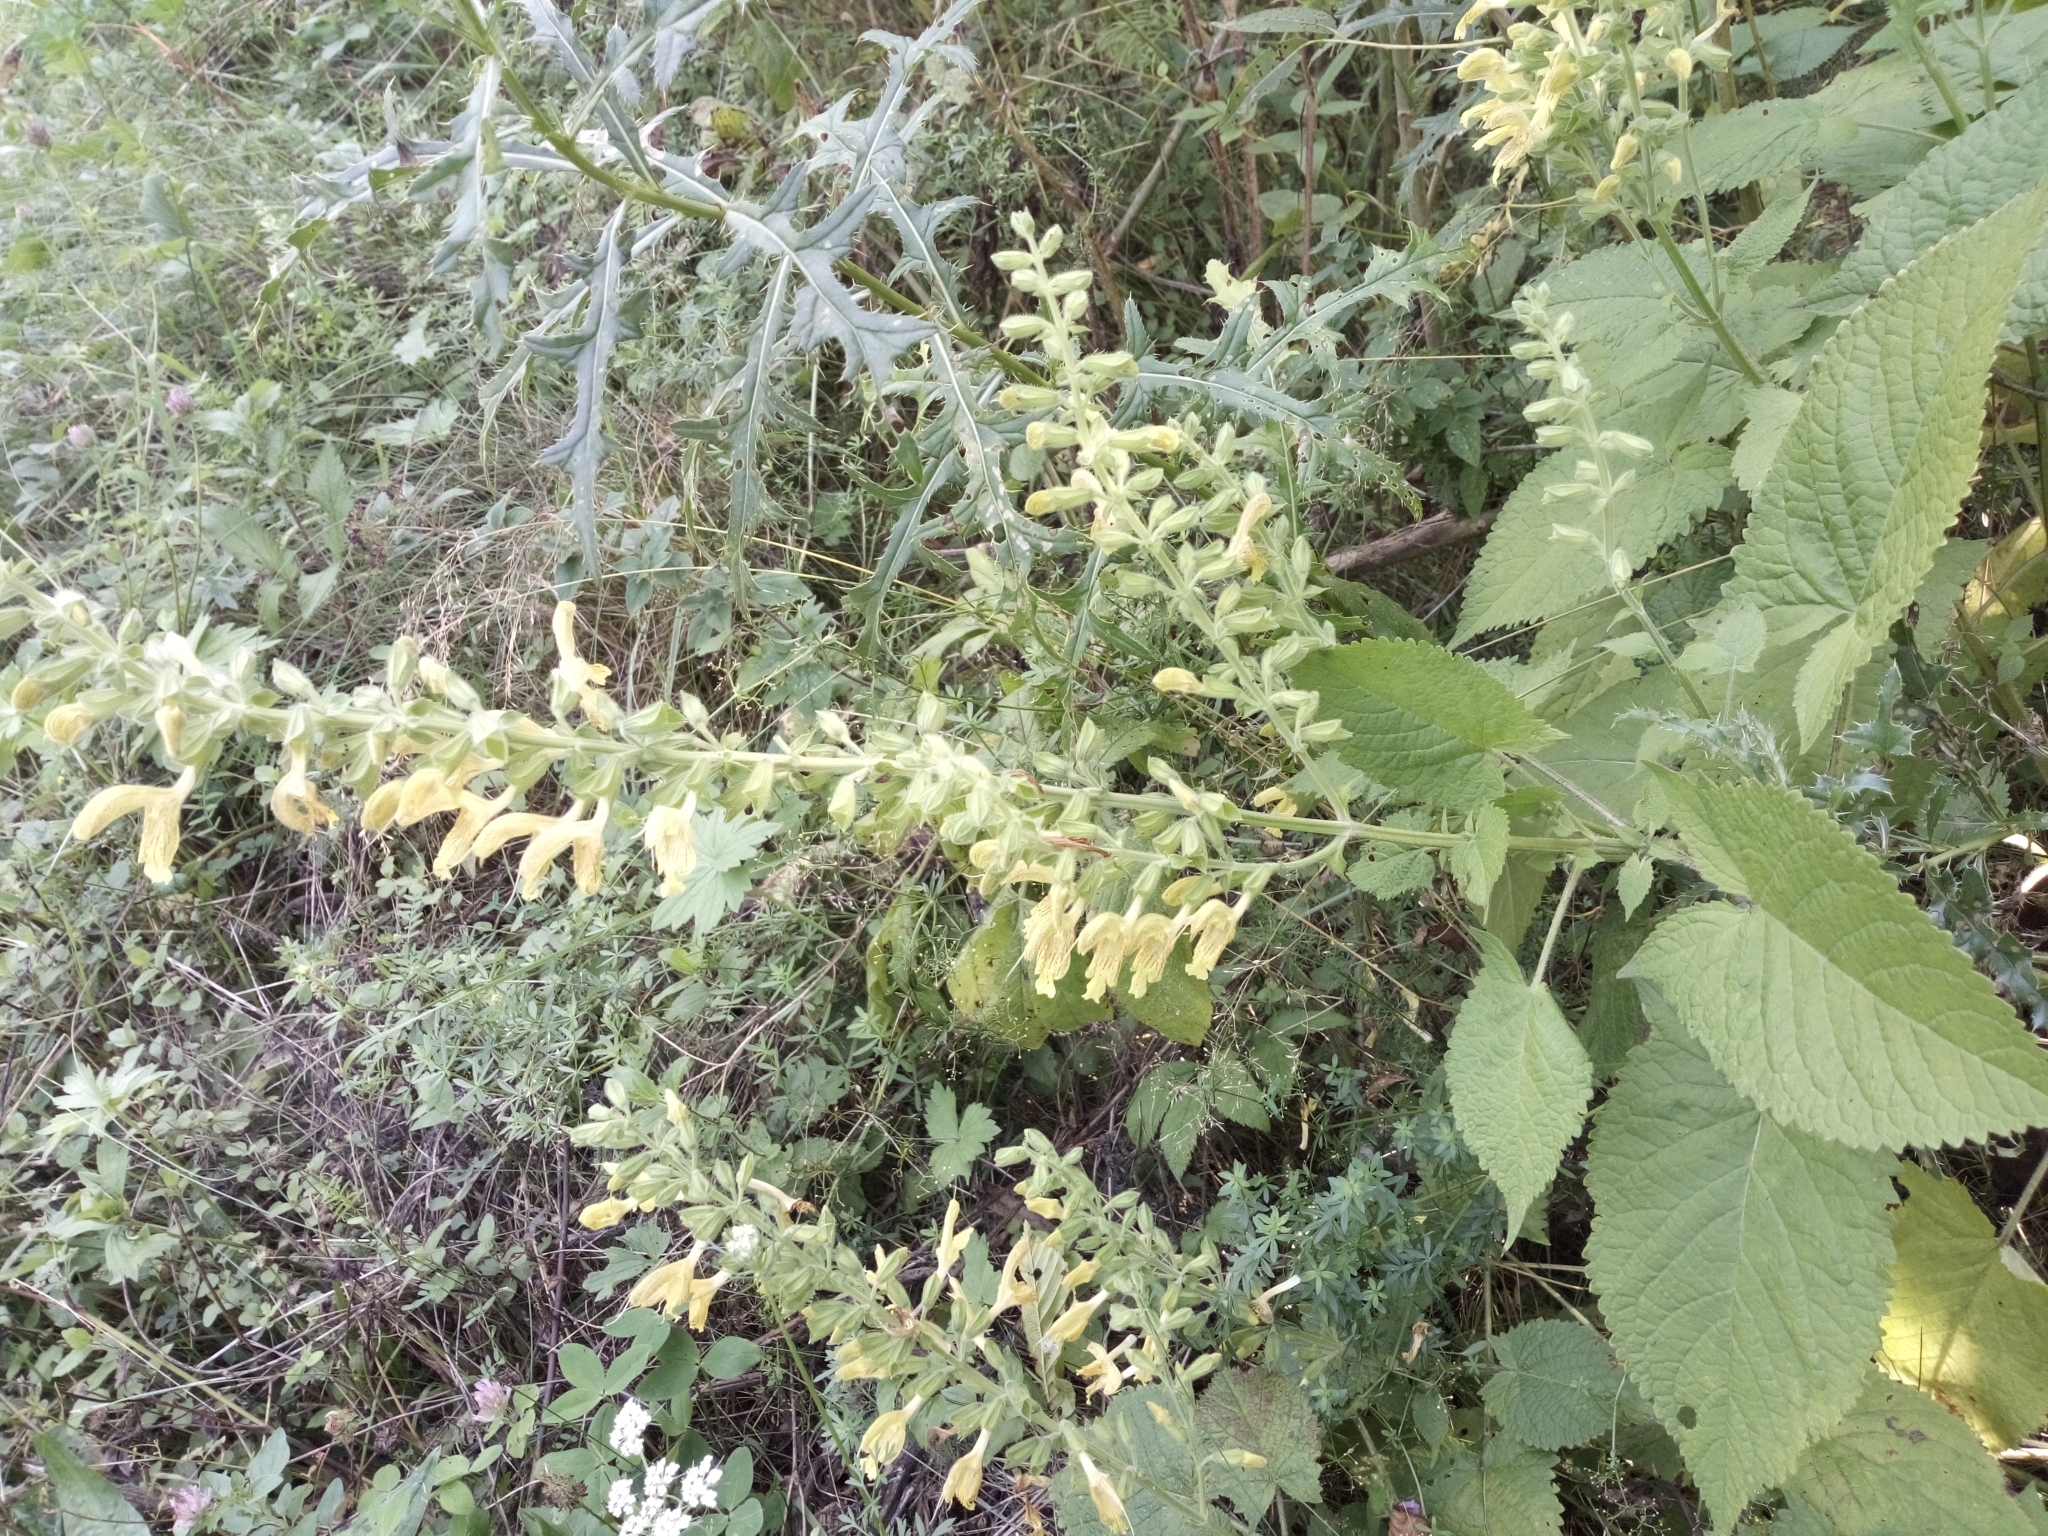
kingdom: Plantae
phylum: Tracheophyta
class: Magnoliopsida
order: Lamiales
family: Lamiaceae
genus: Salvia
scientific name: Salvia glutinosa
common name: Sticky clary
